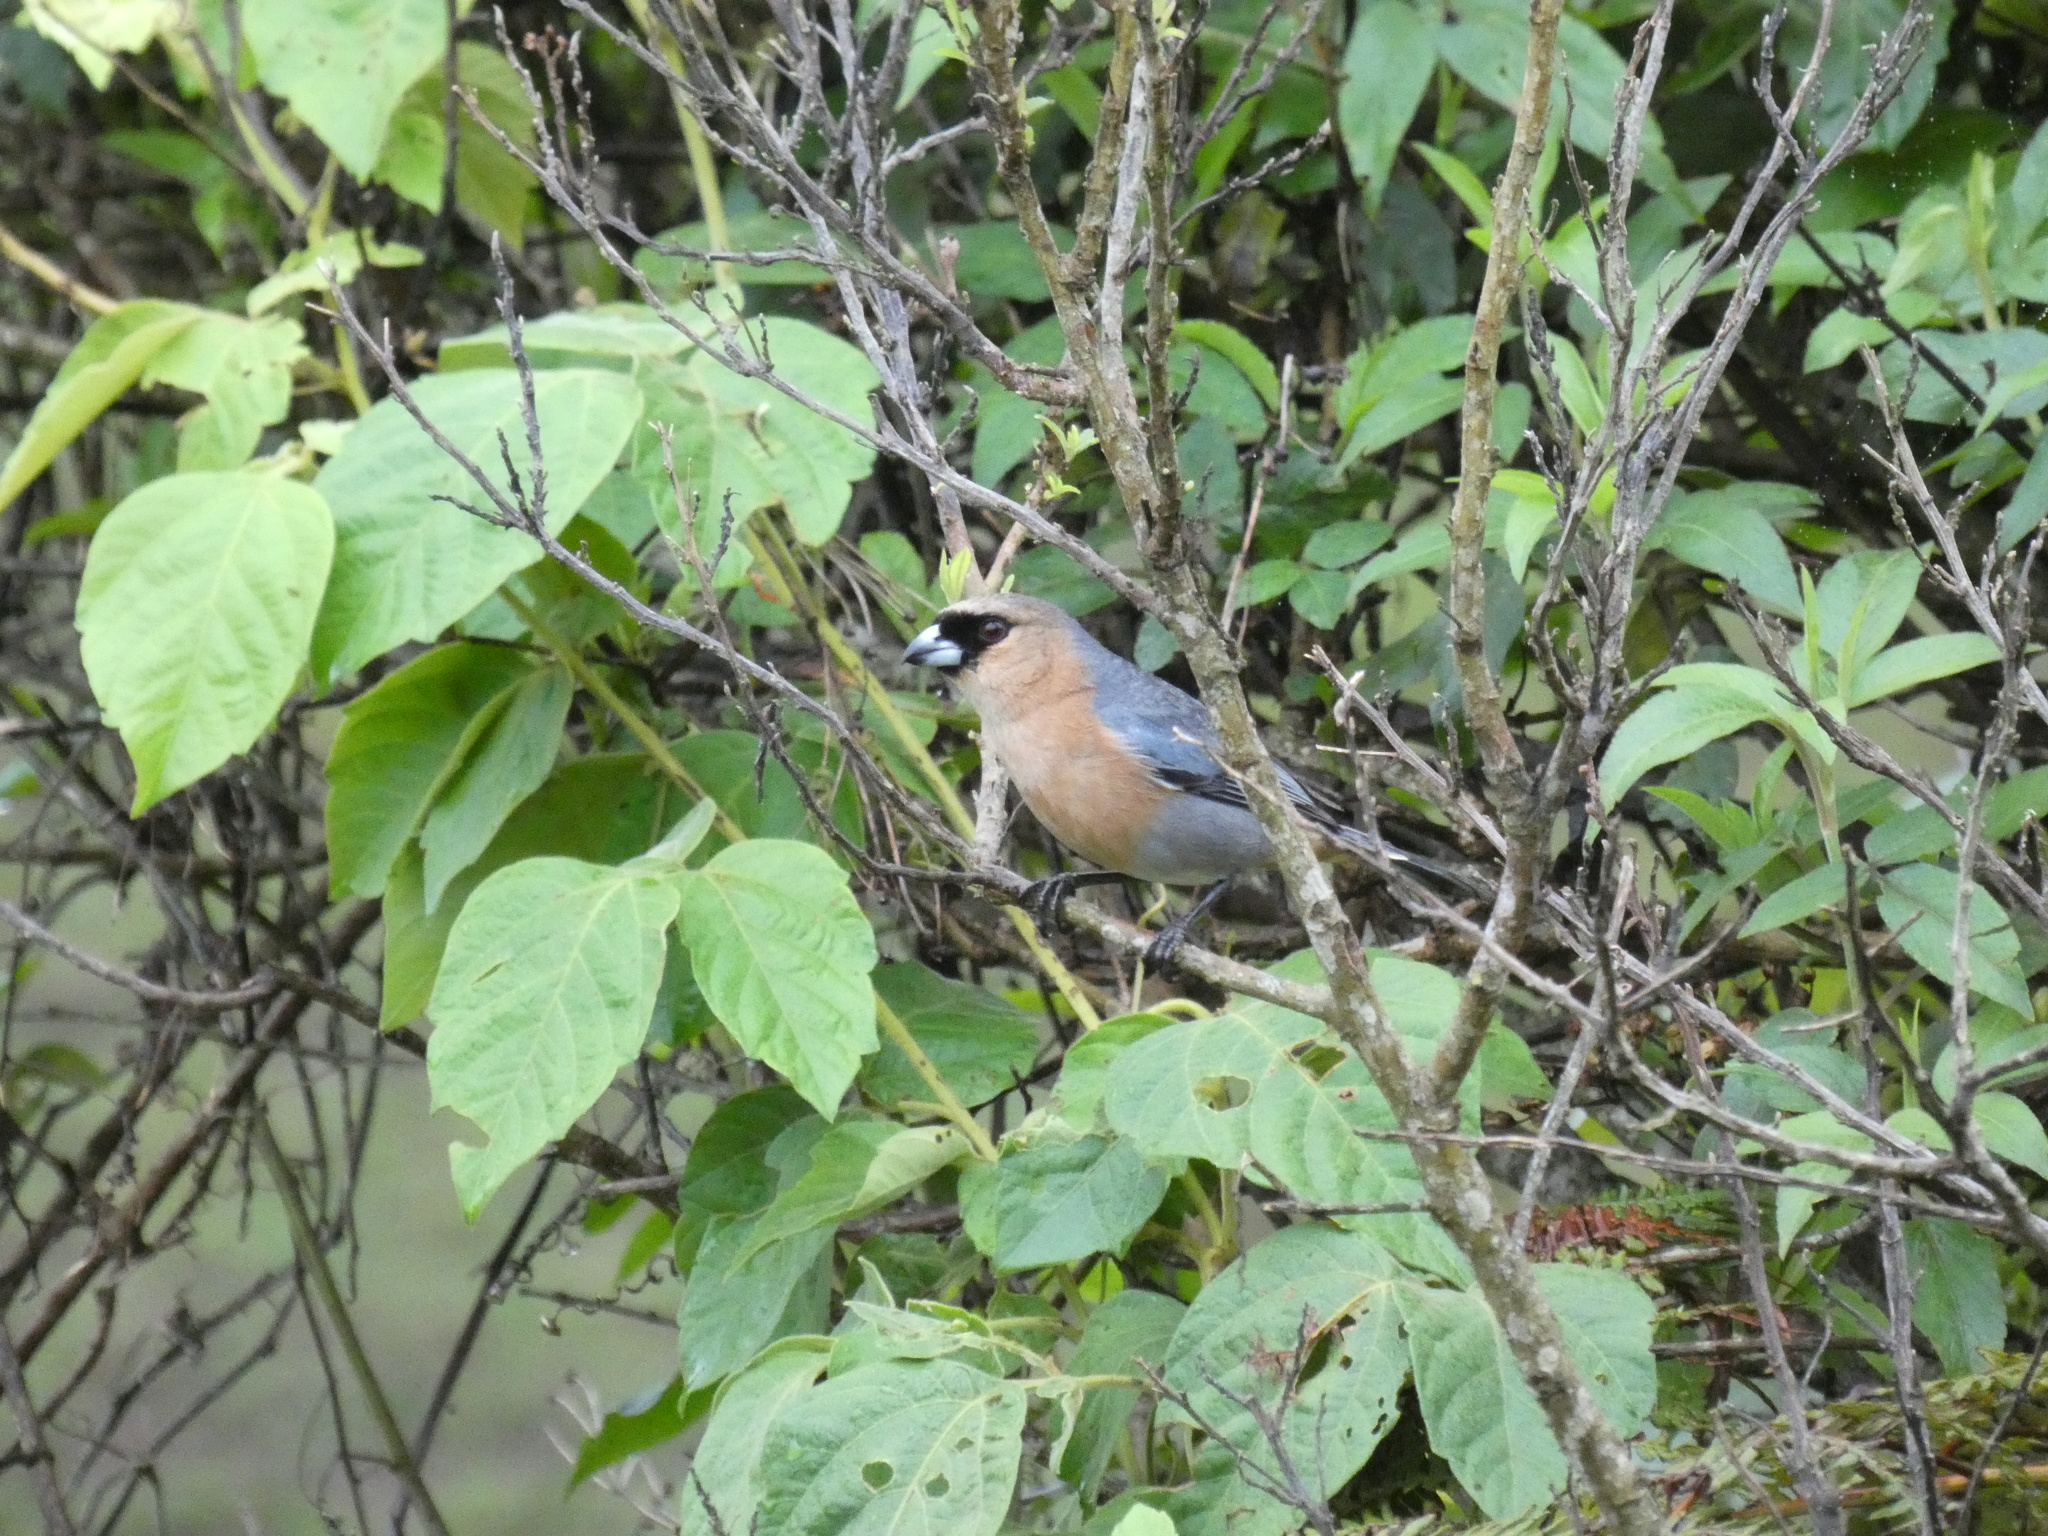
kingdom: Animalia
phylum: Chordata
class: Aves
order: Passeriformes
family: Thraupidae
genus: Schistochlamys
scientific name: Schistochlamys ruficapillus
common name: Cinnamon tanager
